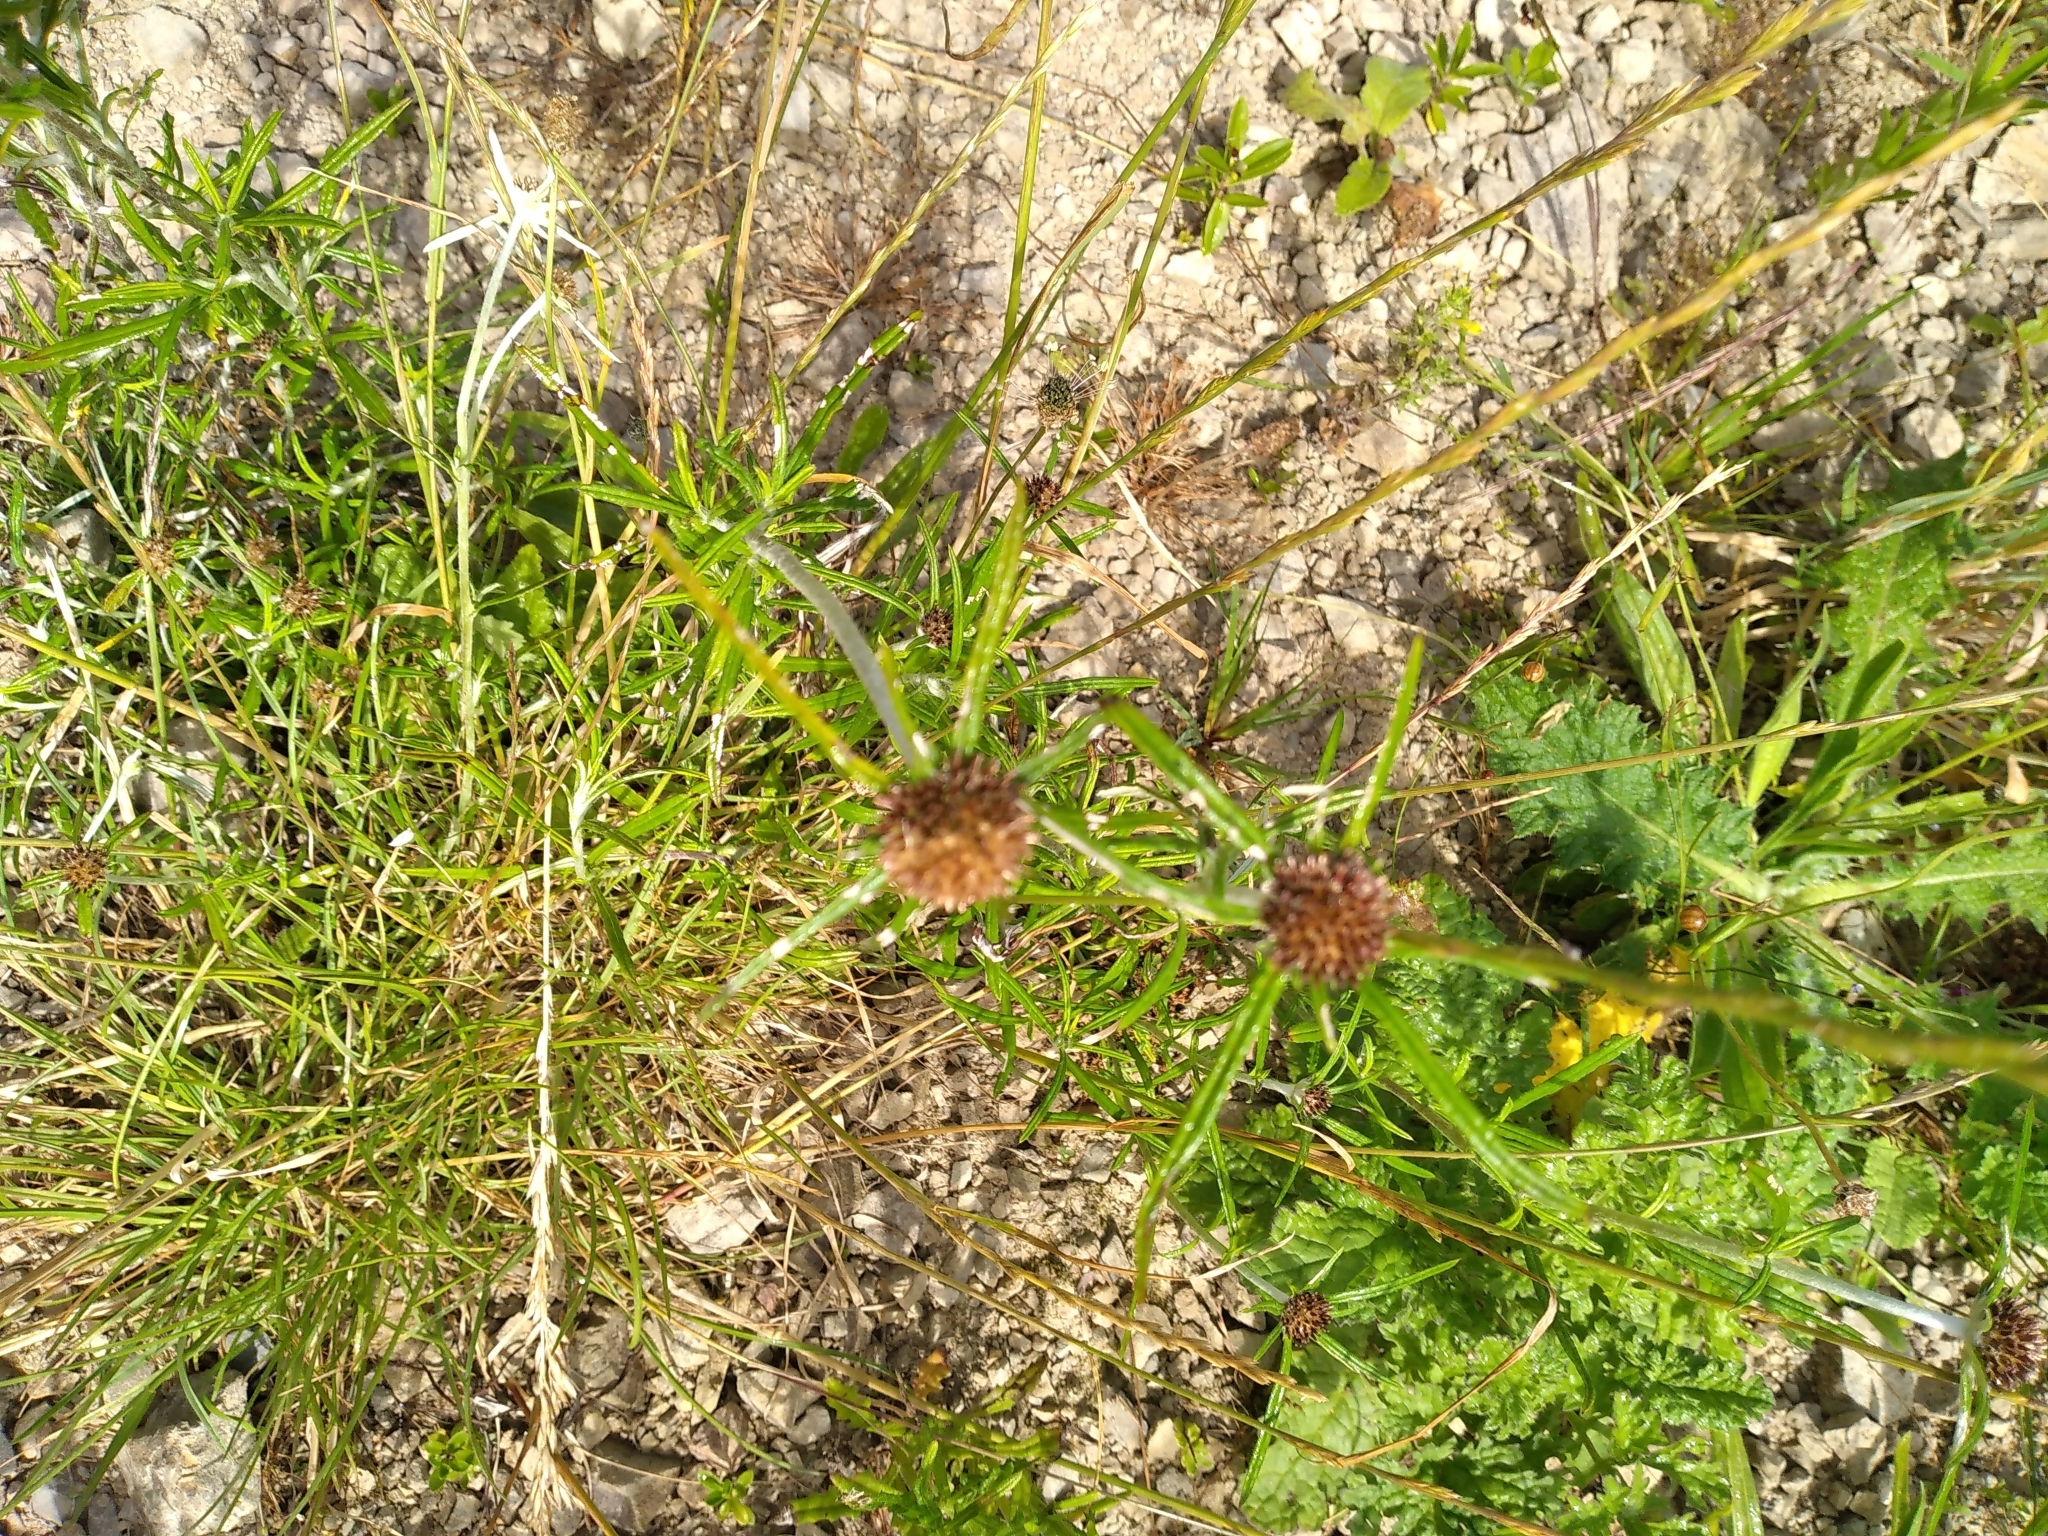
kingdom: Plantae
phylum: Tracheophyta
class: Magnoliopsida
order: Asterales
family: Asteraceae
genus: Euchiton
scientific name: Euchiton sphaericus
